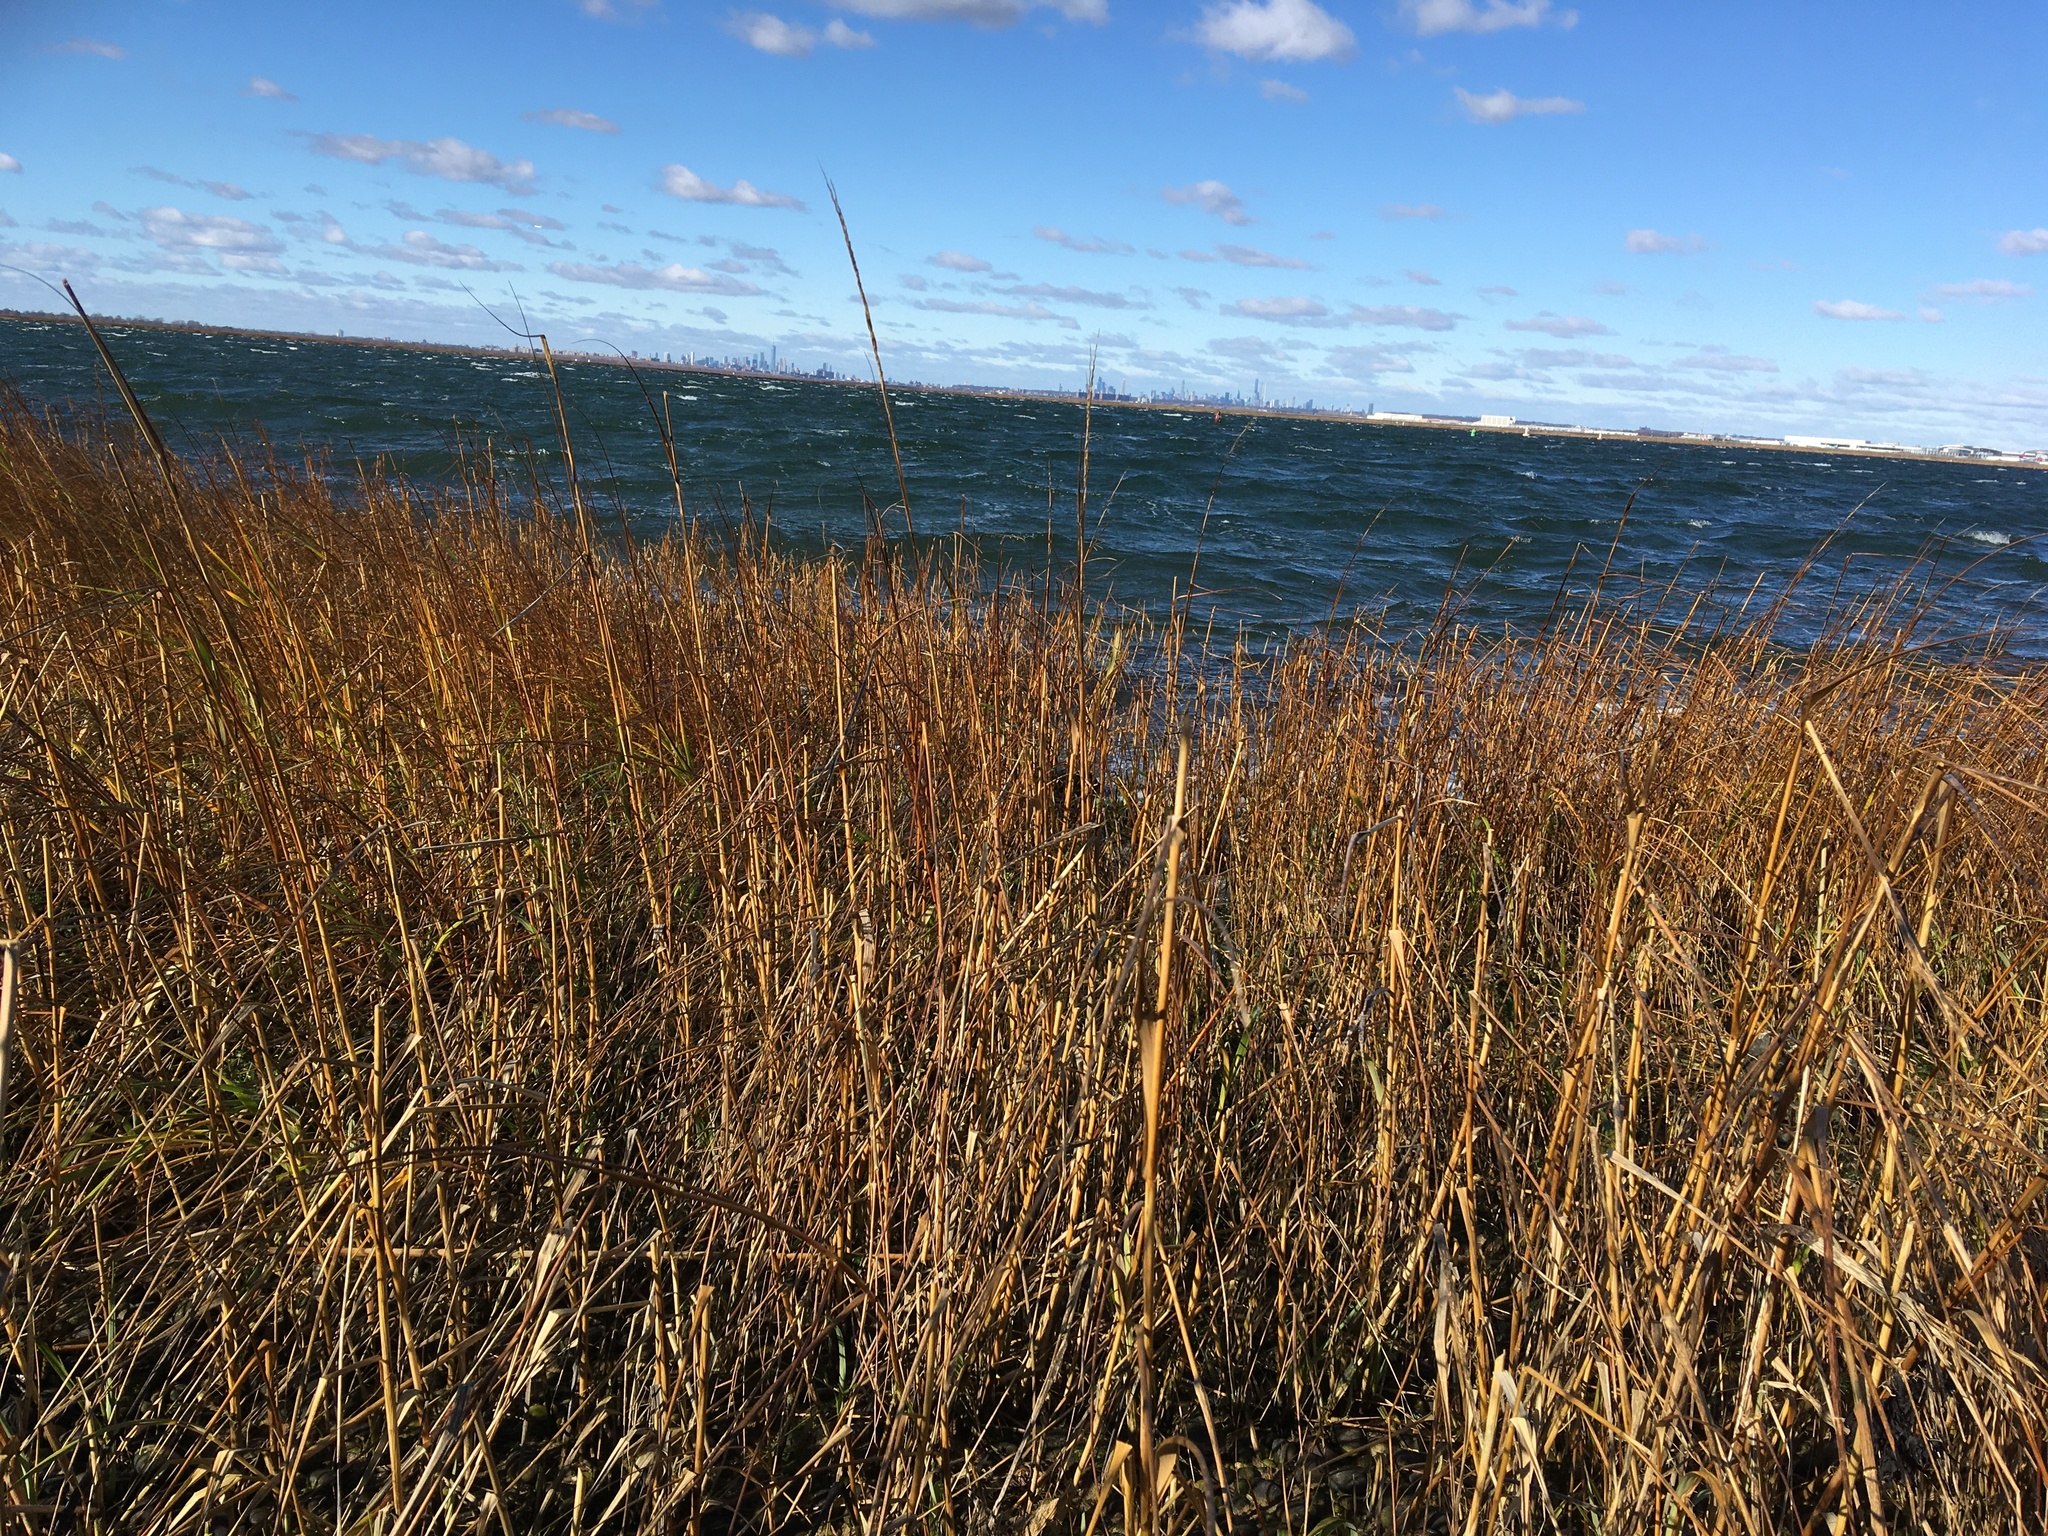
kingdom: Plantae
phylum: Tracheophyta
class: Liliopsida
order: Poales
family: Poaceae
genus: Sporobolus
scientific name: Sporobolus alterniflorus
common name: Atlantic cordgrass
